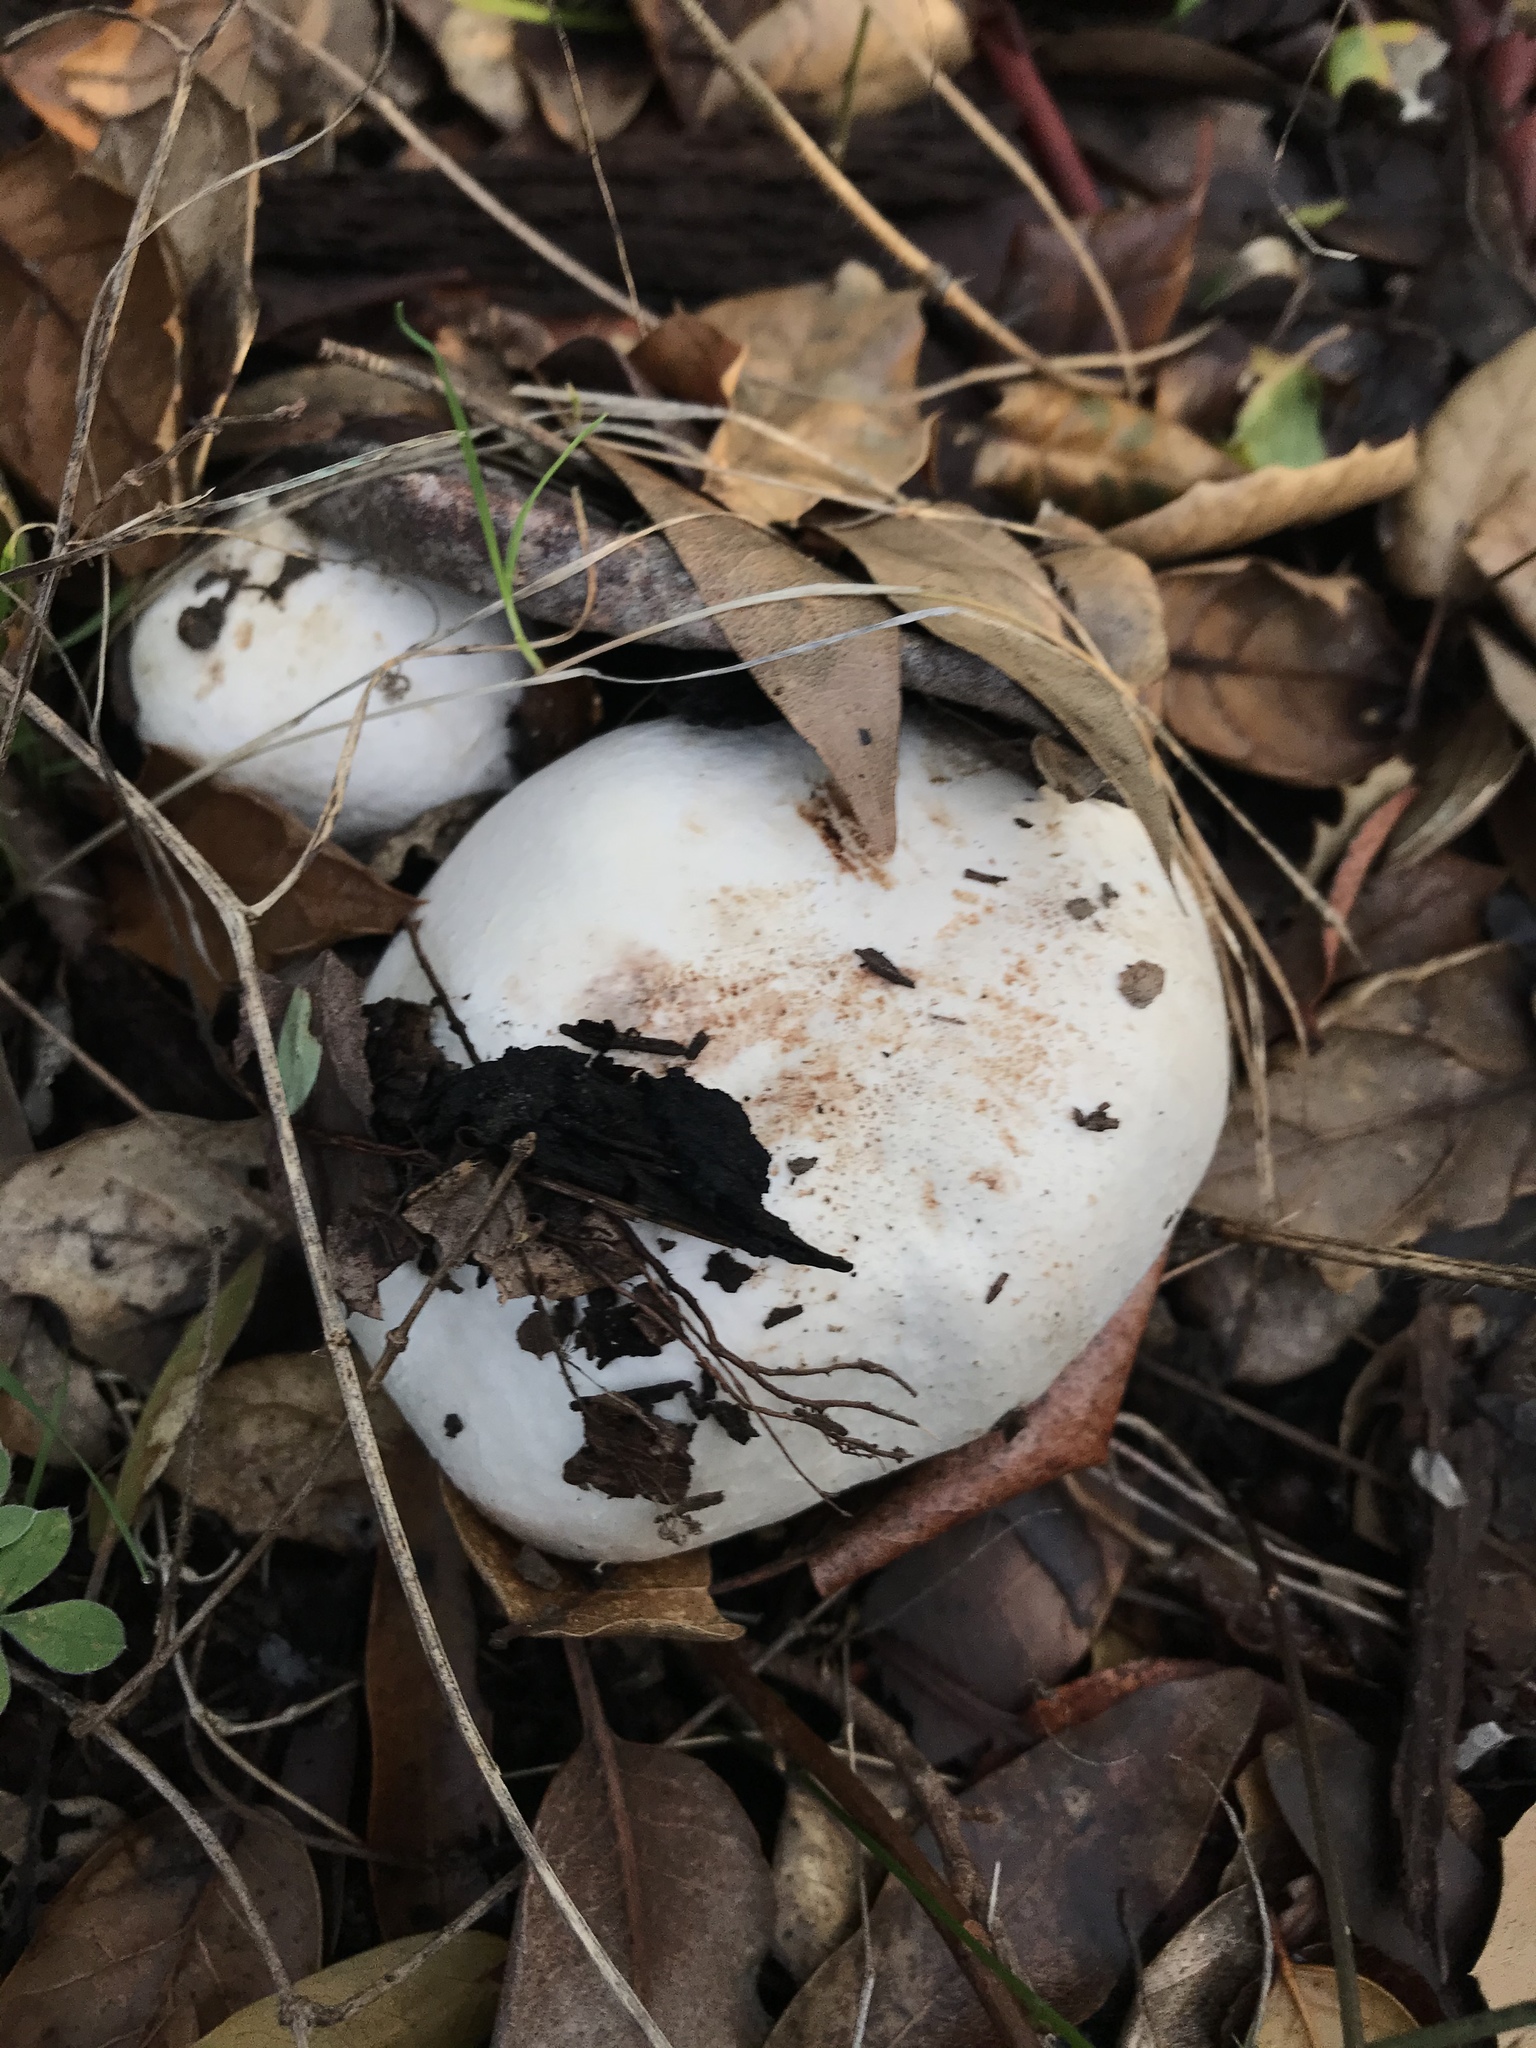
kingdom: Fungi
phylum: Basidiomycota
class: Agaricomycetes
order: Agaricales
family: Agaricaceae
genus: Agaricus
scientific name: Agaricus xanthodermus
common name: Yellow stainer
